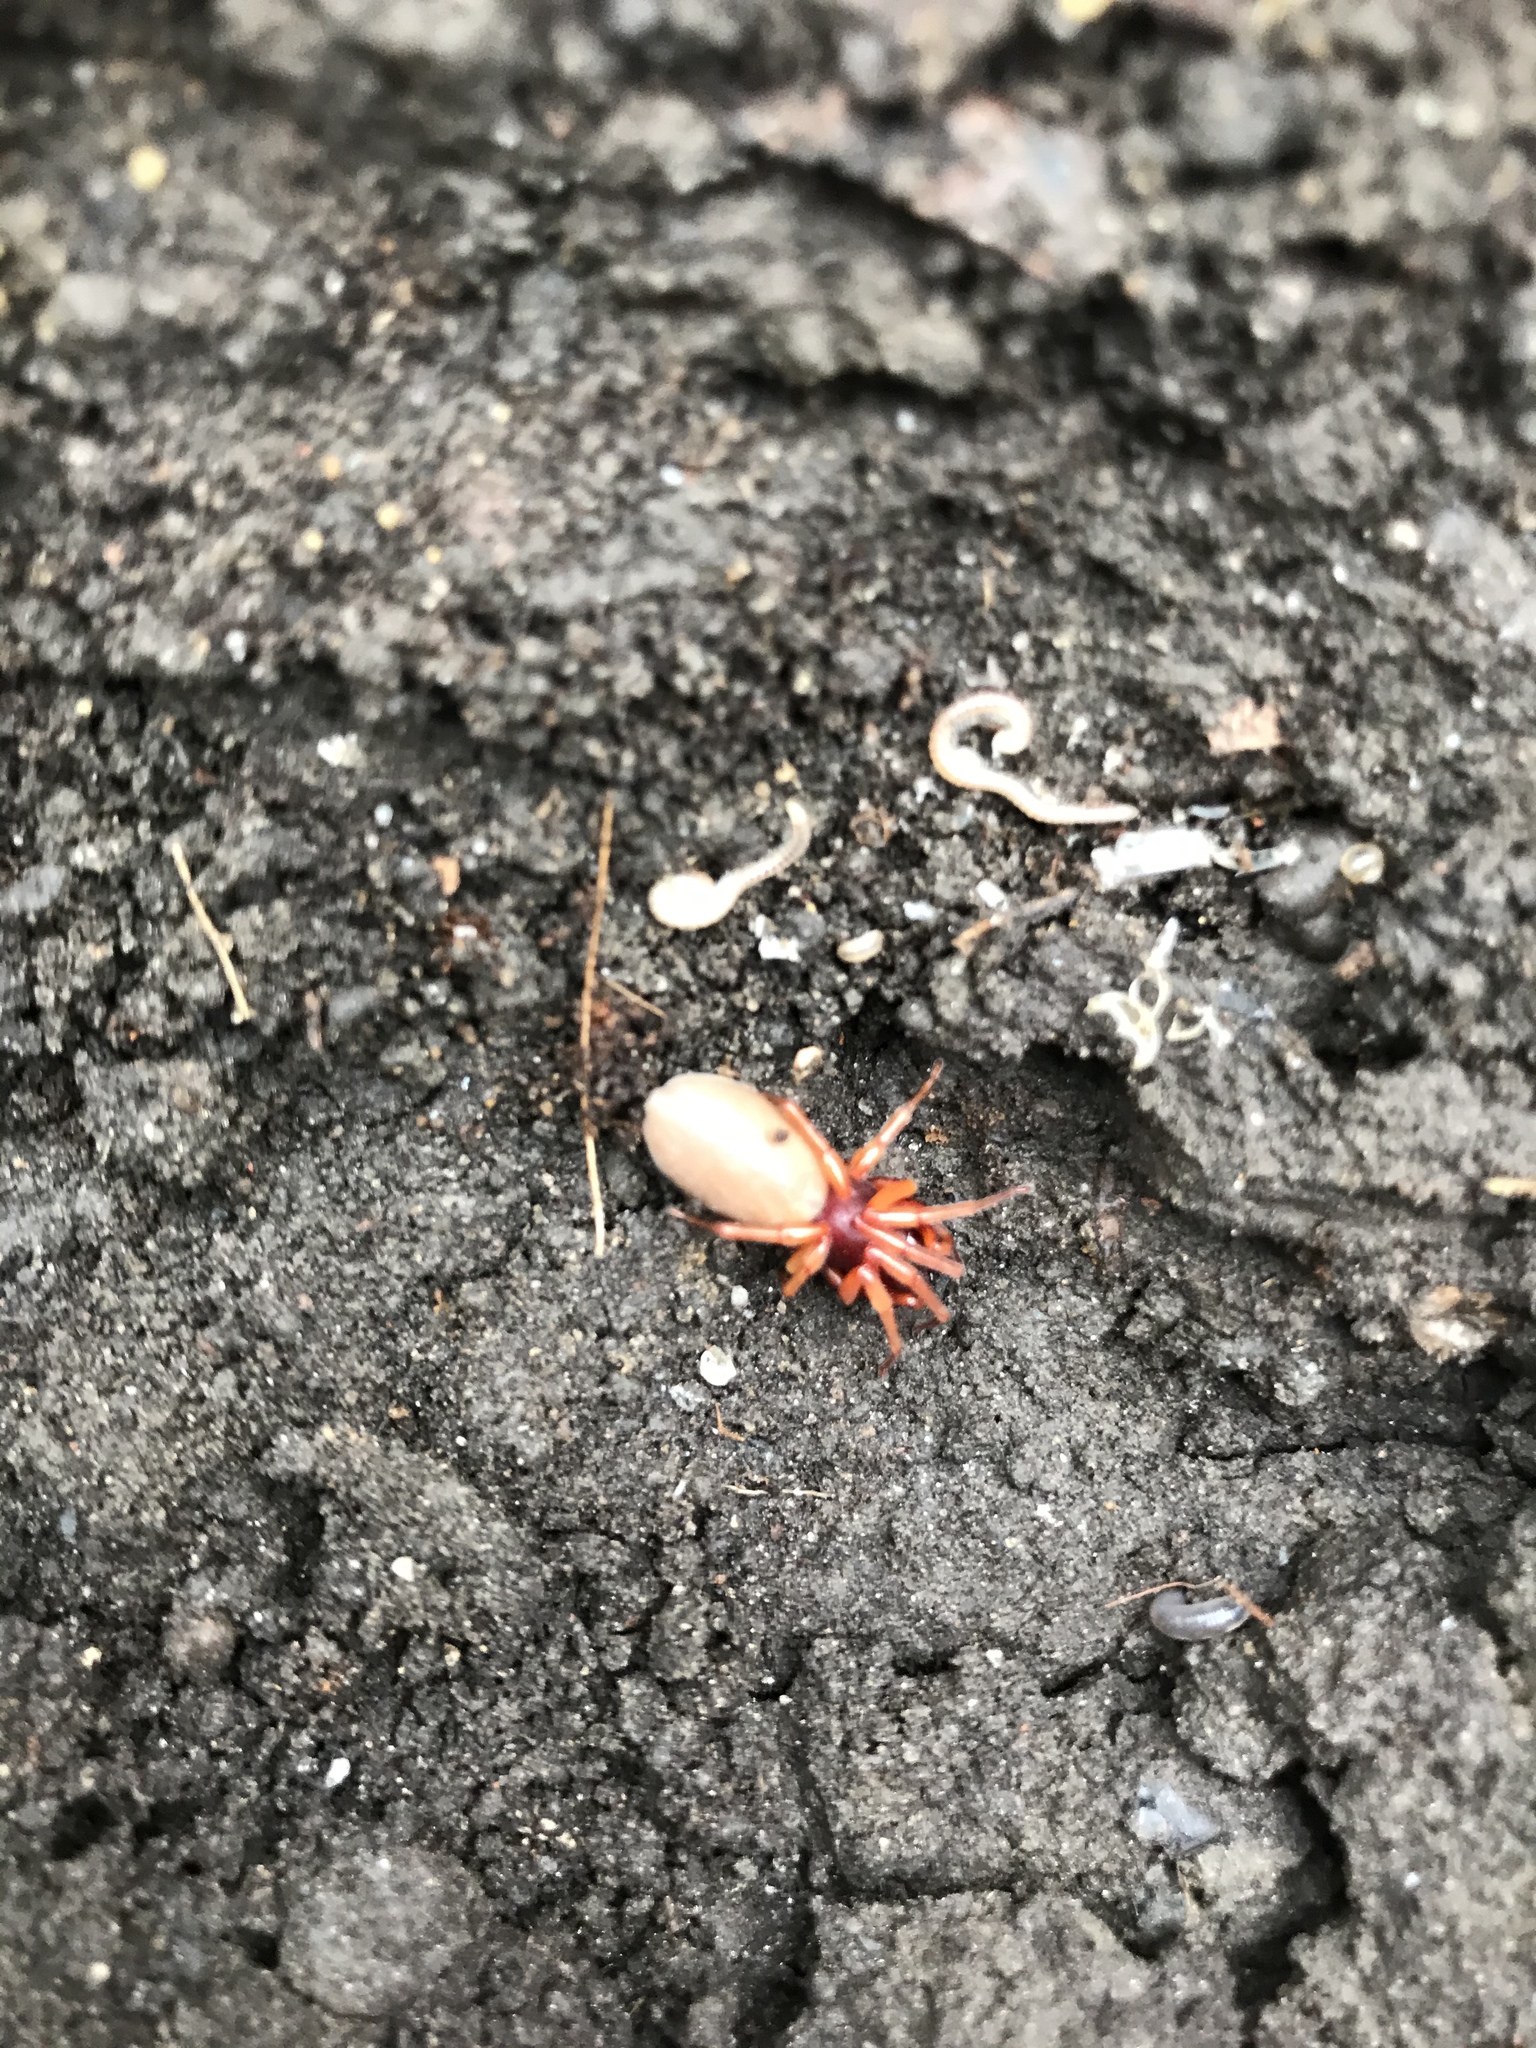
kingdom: Animalia
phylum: Arthropoda
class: Arachnida
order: Araneae
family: Dysderidae
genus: Dysdera
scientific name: Dysdera crocata
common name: Woodlouse spider
